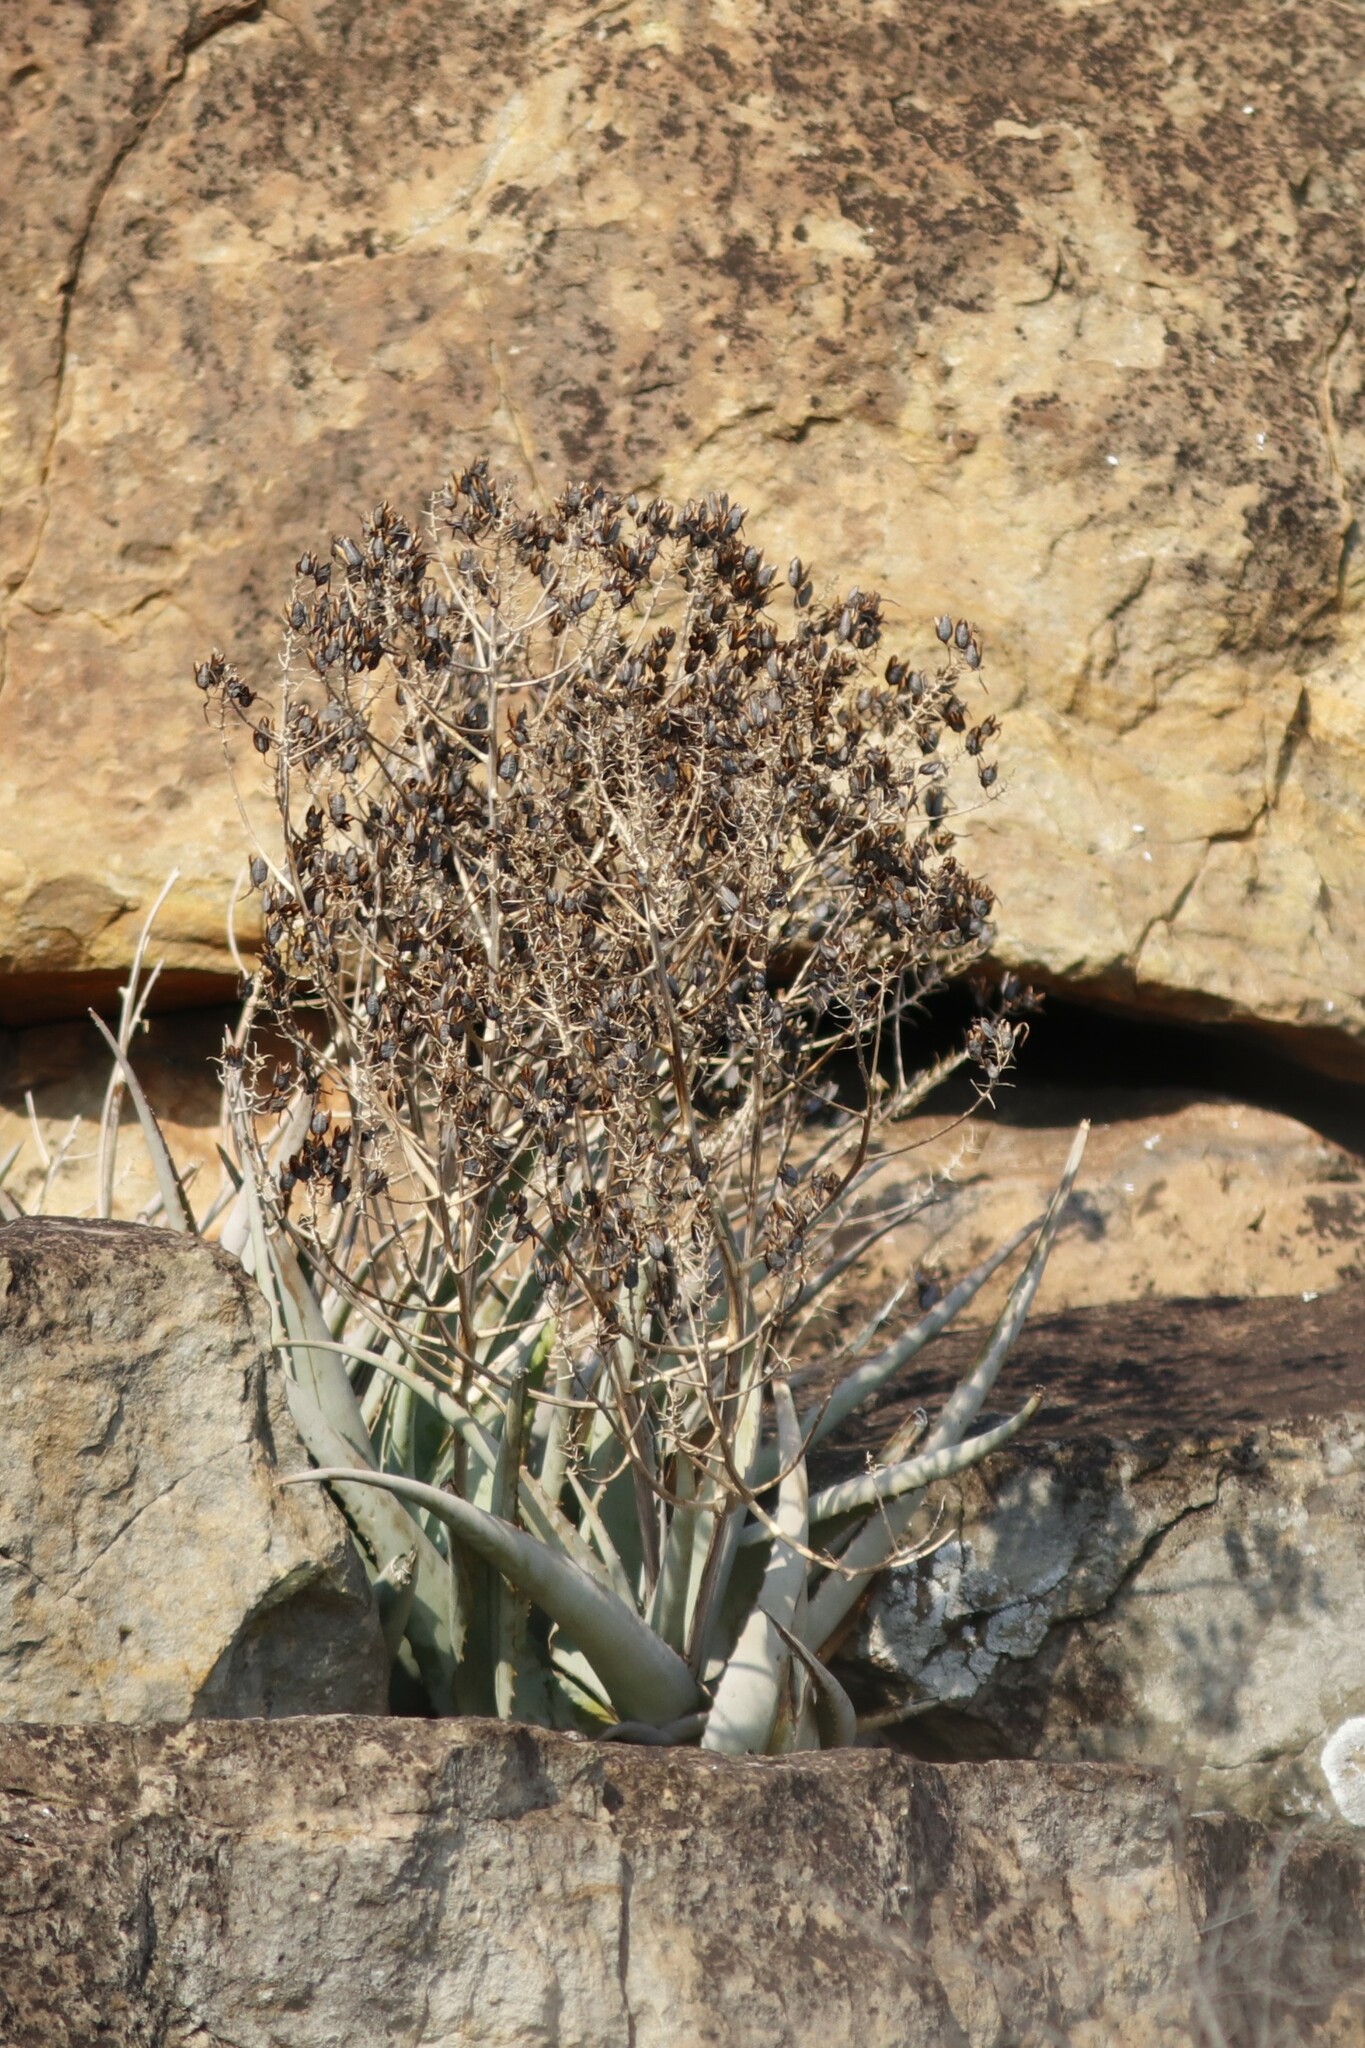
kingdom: Plantae
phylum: Tracheophyta
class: Liliopsida
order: Asparagales
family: Asphodelaceae
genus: Aloe
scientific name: Aloe chabaudii
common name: Chabaud's aloe
